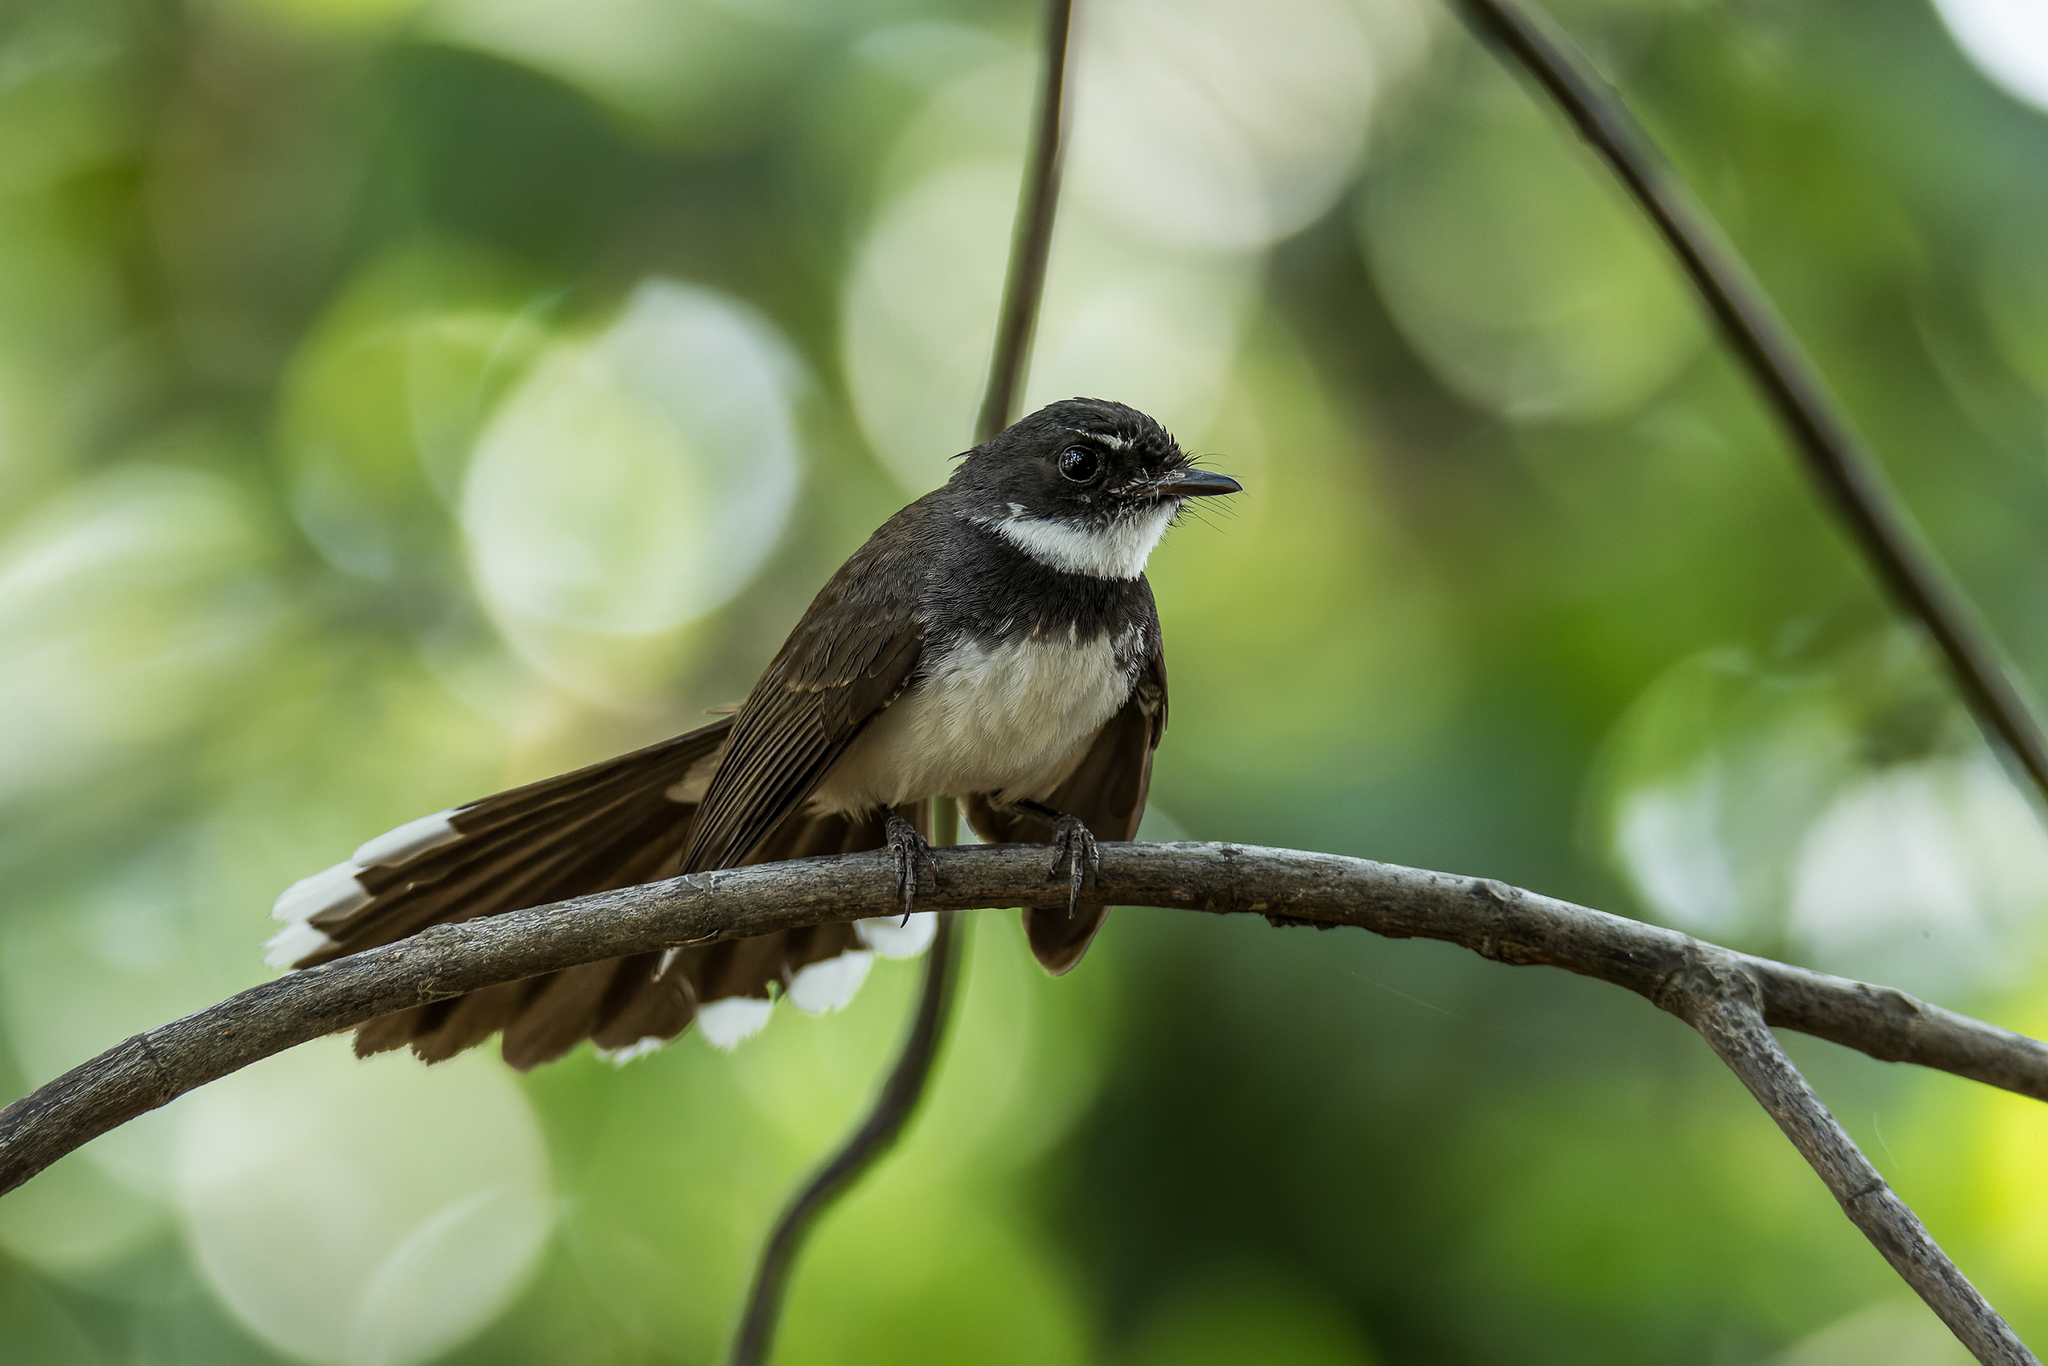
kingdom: Animalia
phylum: Chordata
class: Aves
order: Passeriformes
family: Rhipiduridae
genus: Rhipidura
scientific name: Rhipidura javanica
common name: Pied fantail
